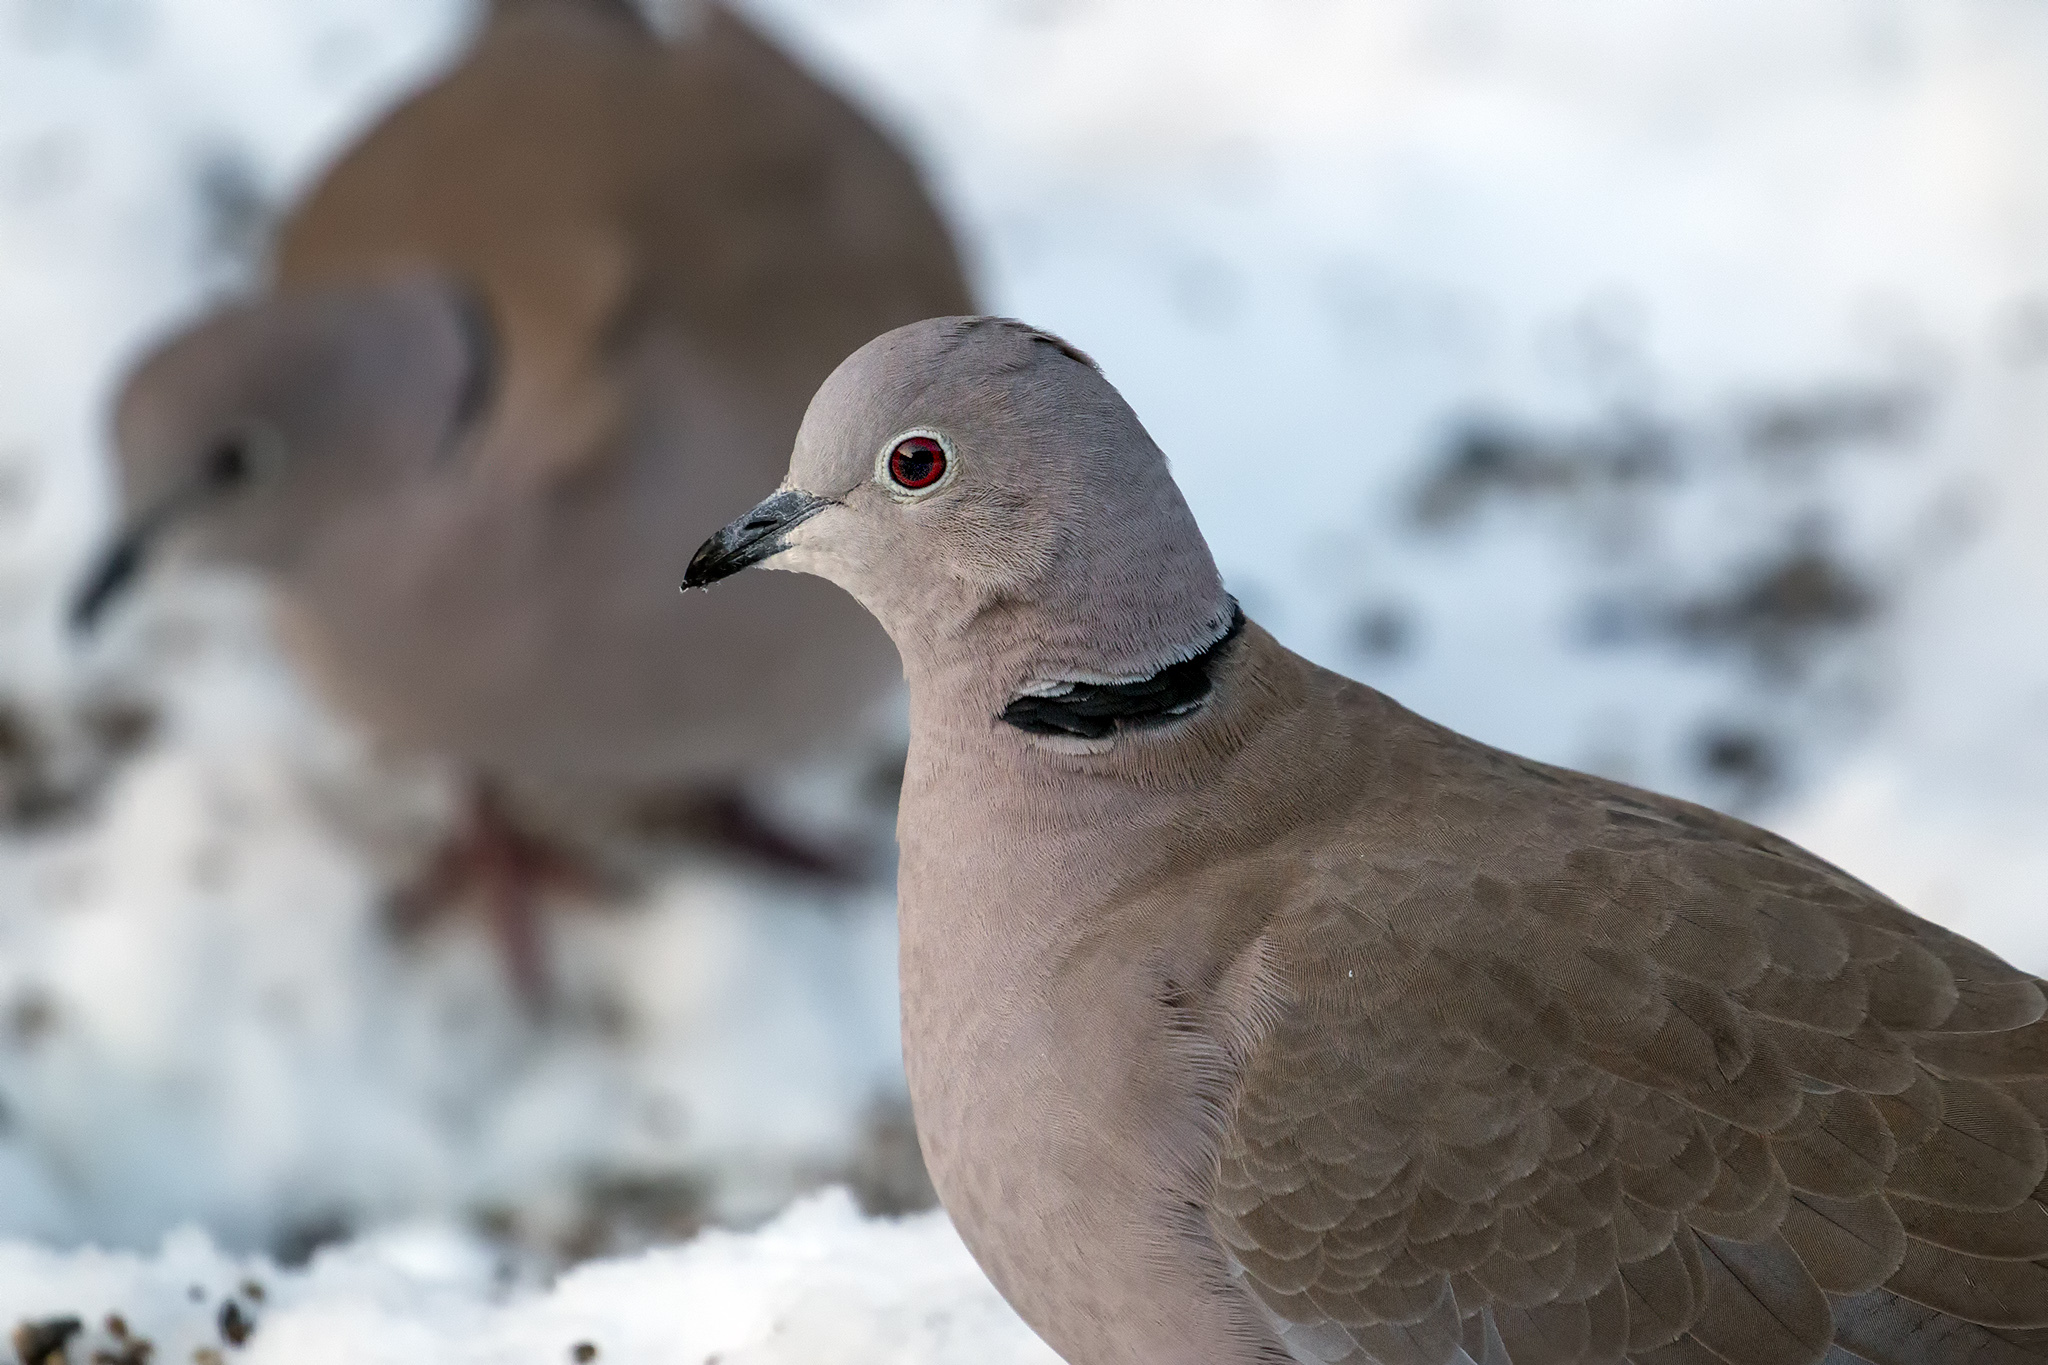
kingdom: Animalia
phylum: Chordata
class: Aves
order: Columbiformes
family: Columbidae
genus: Streptopelia
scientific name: Streptopelia decaocto
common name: Eurasian collared dove
